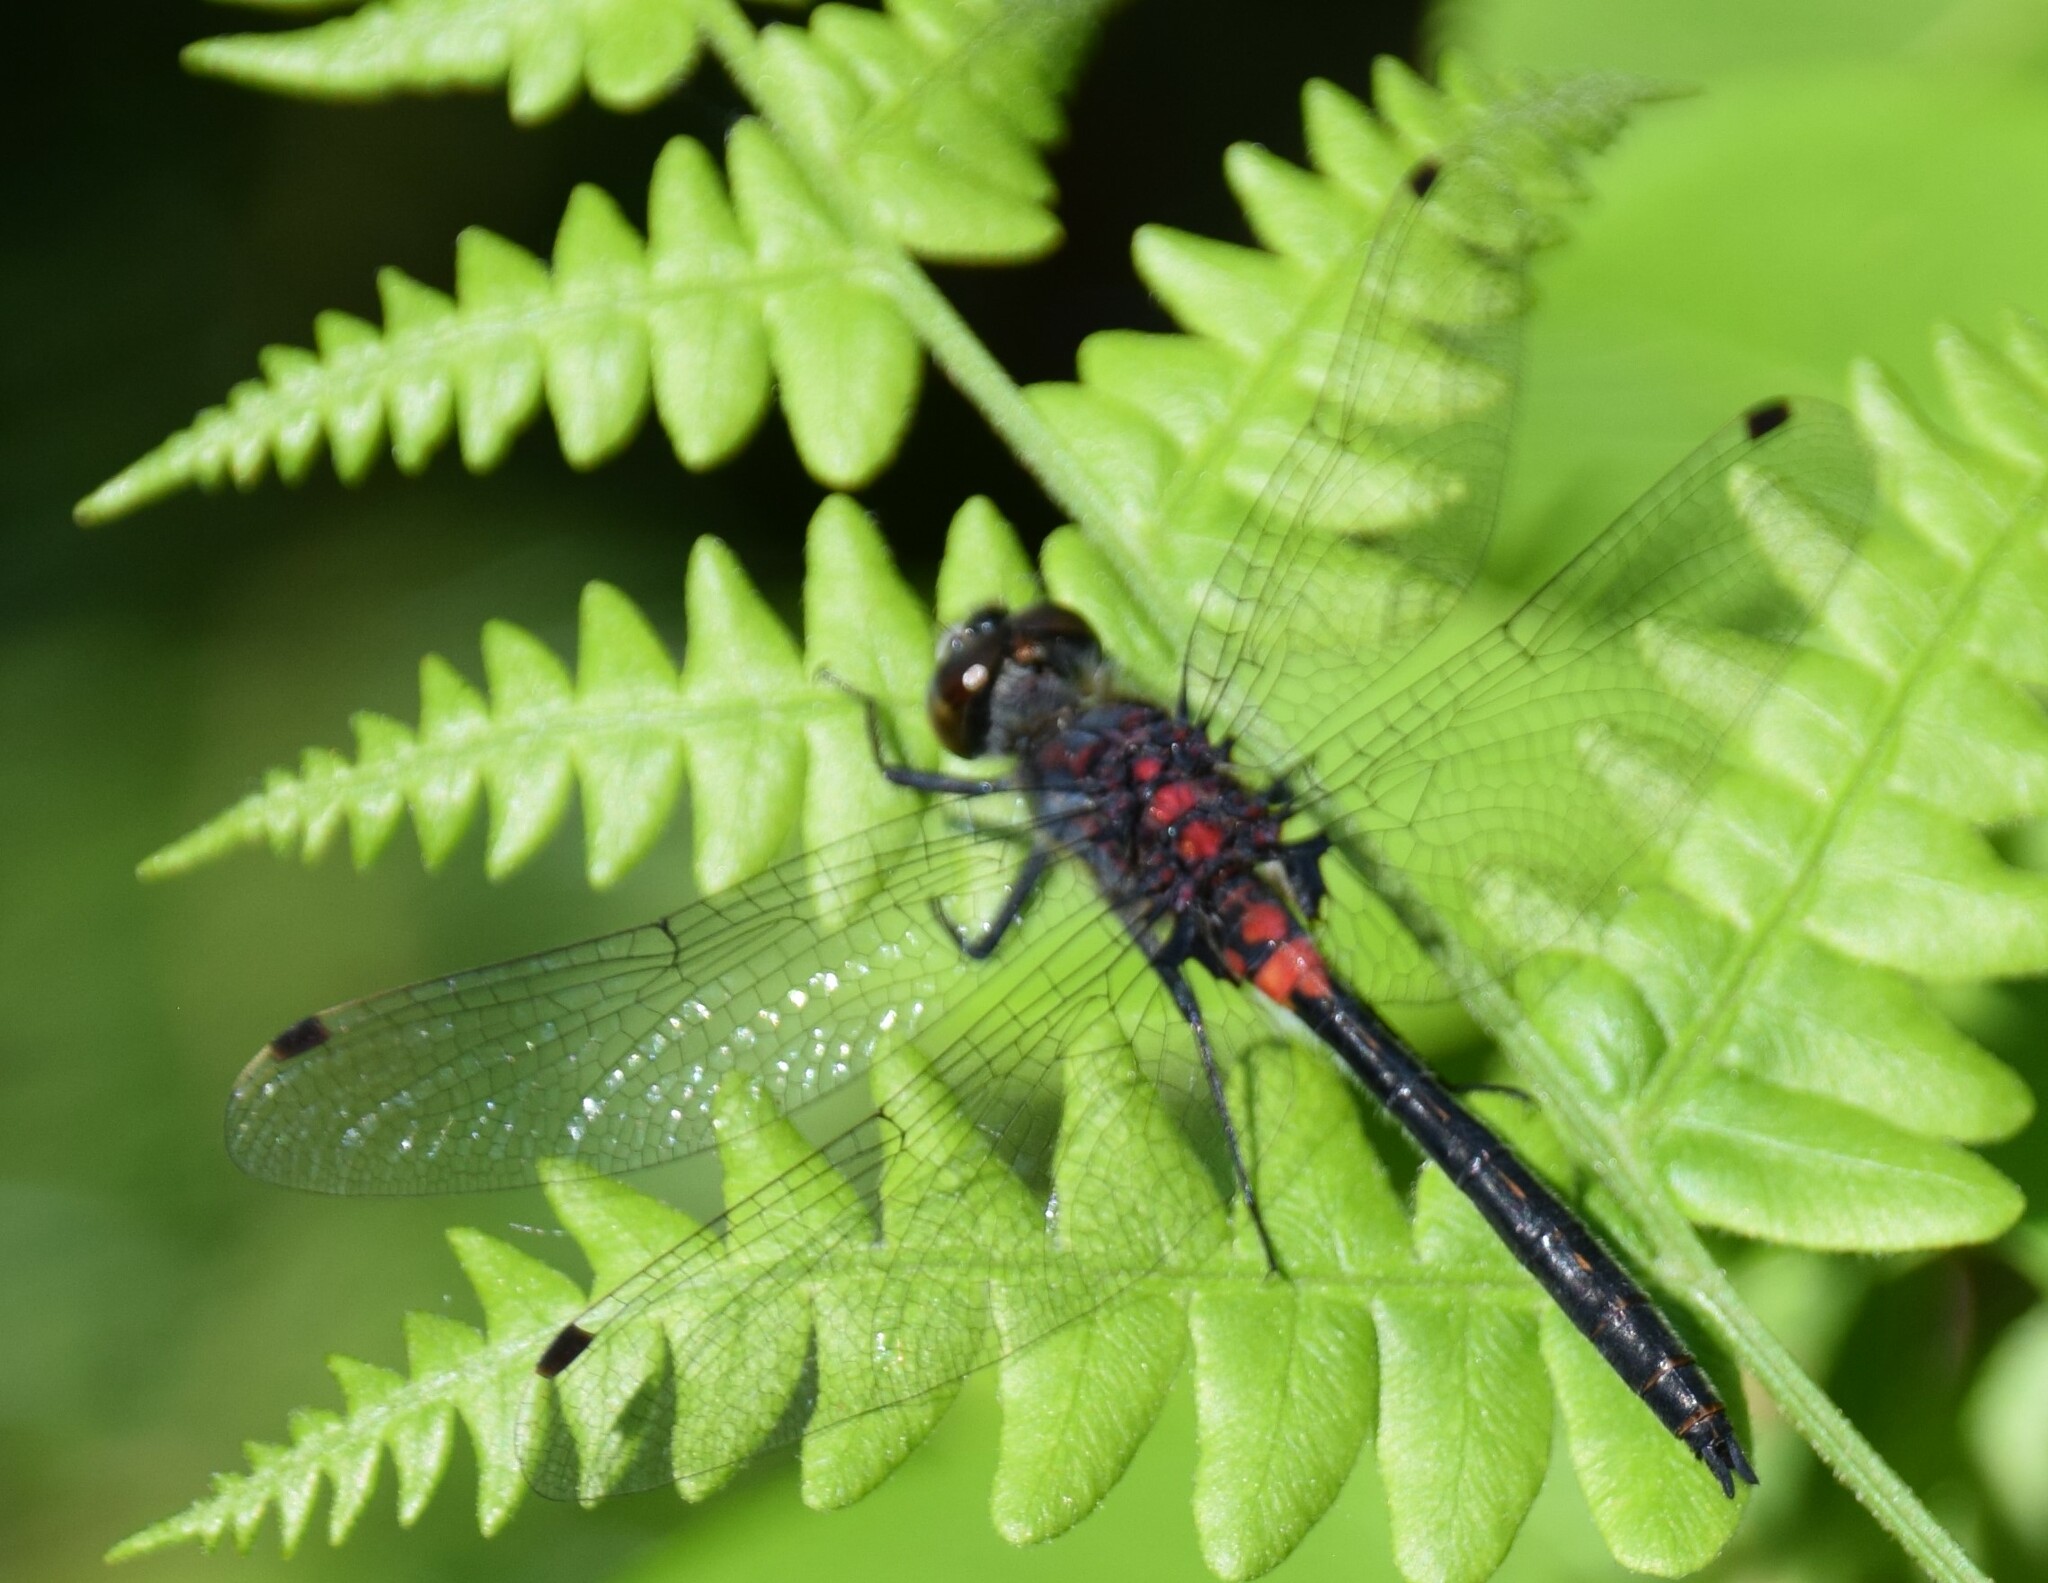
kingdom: Animalia
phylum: Arthropoda
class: Insecta
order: Odonata
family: Libellulidae
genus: Leucorrhinia
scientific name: Leucorrhinia proxima
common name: Belted whiteface
